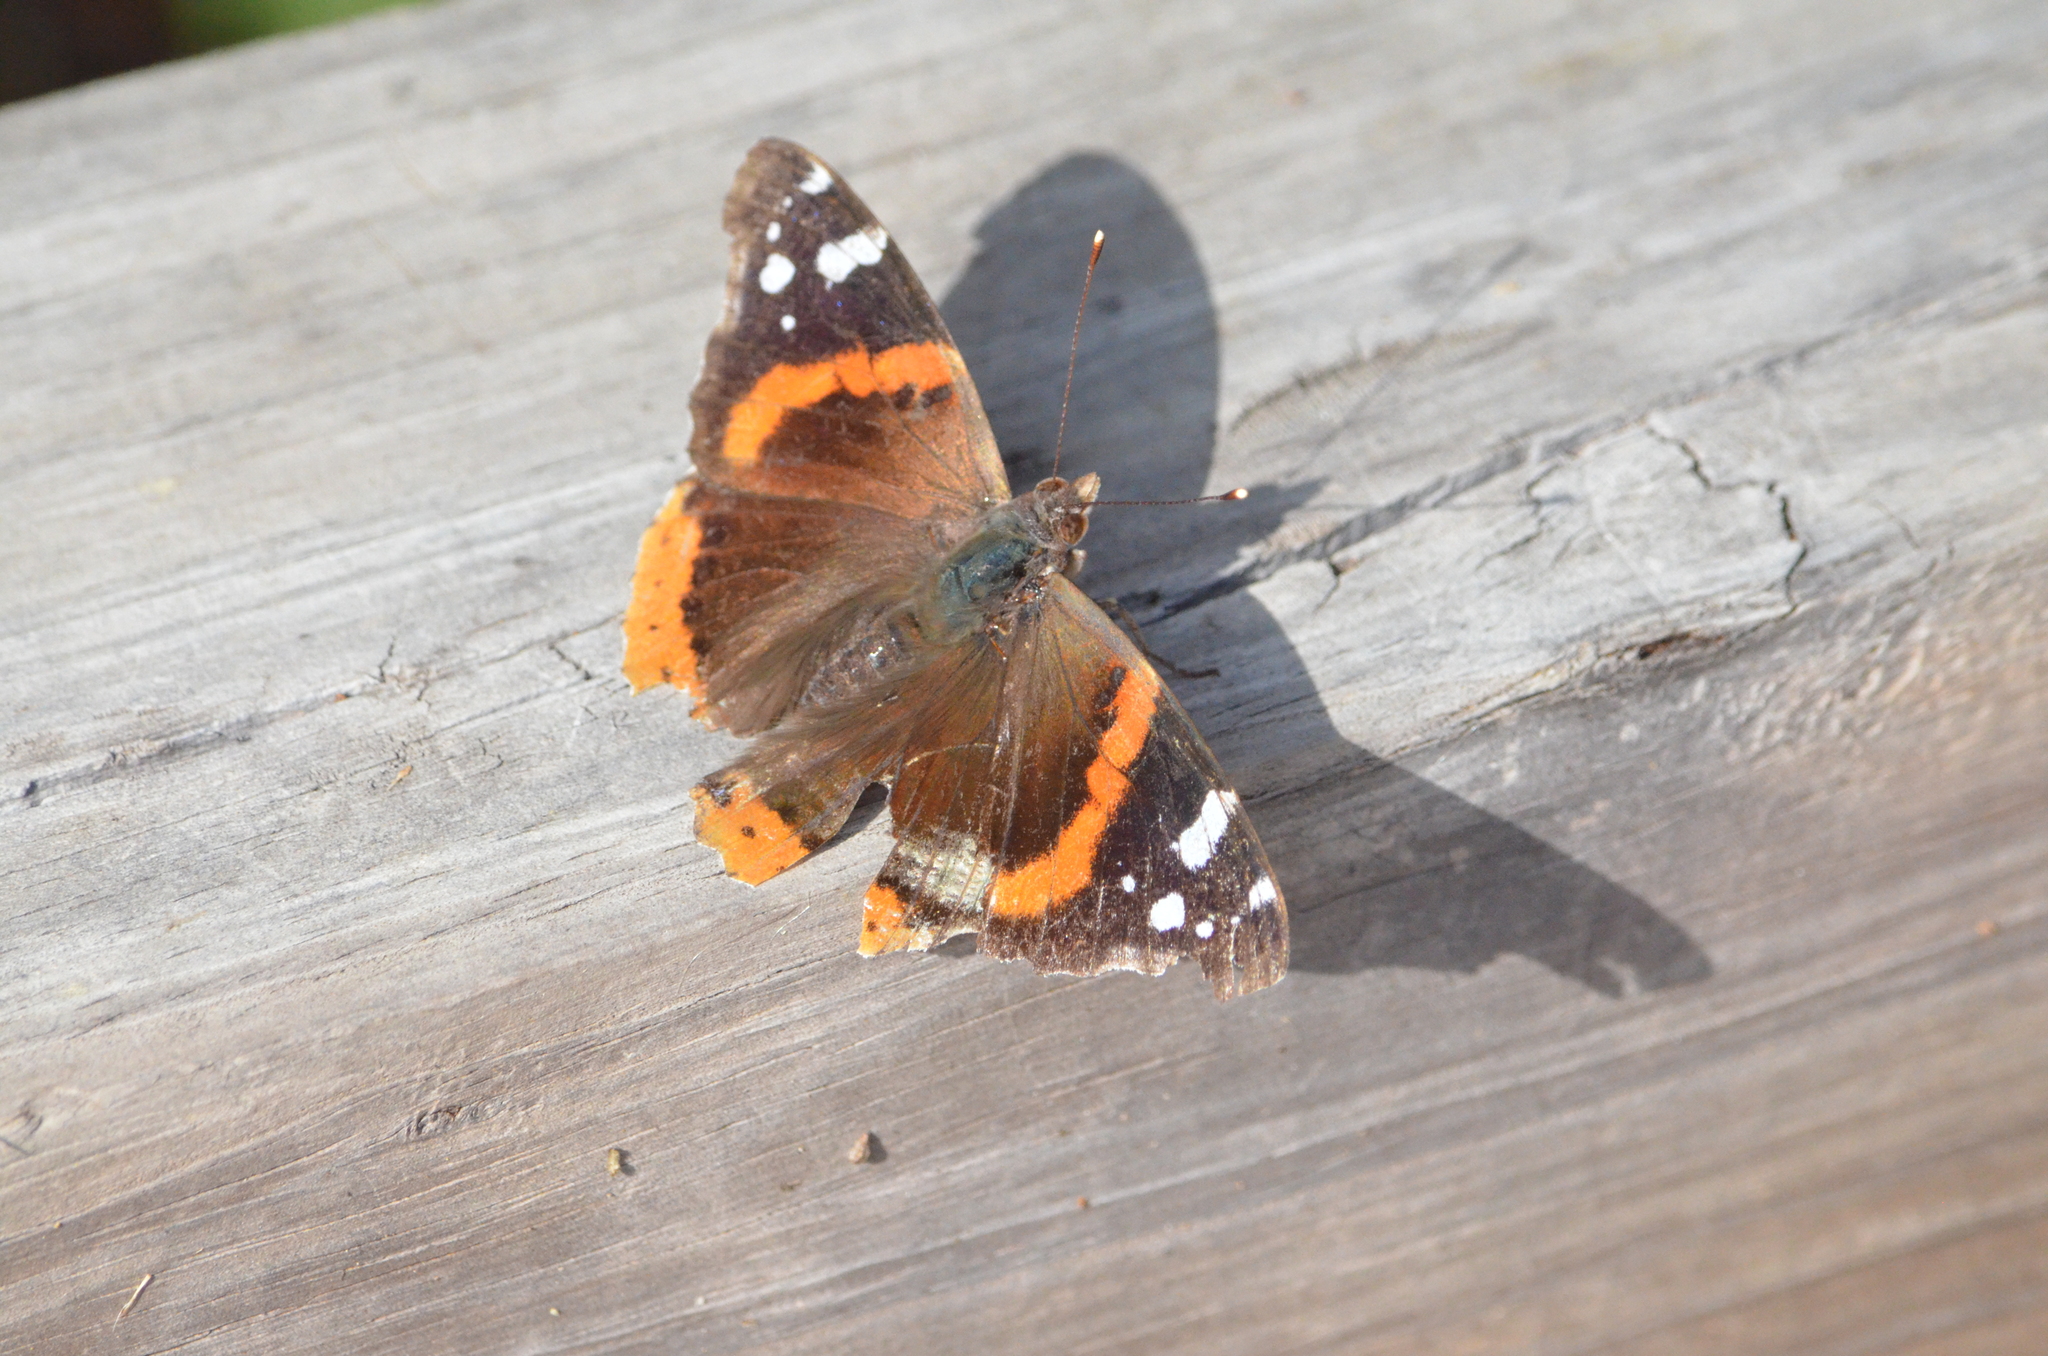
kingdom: Animalia
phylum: Arthropoda
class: Insecta
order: Lepidoptera
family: Nymphalidae
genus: Vanessa
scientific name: Vanessa atalanta
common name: Red admiral
